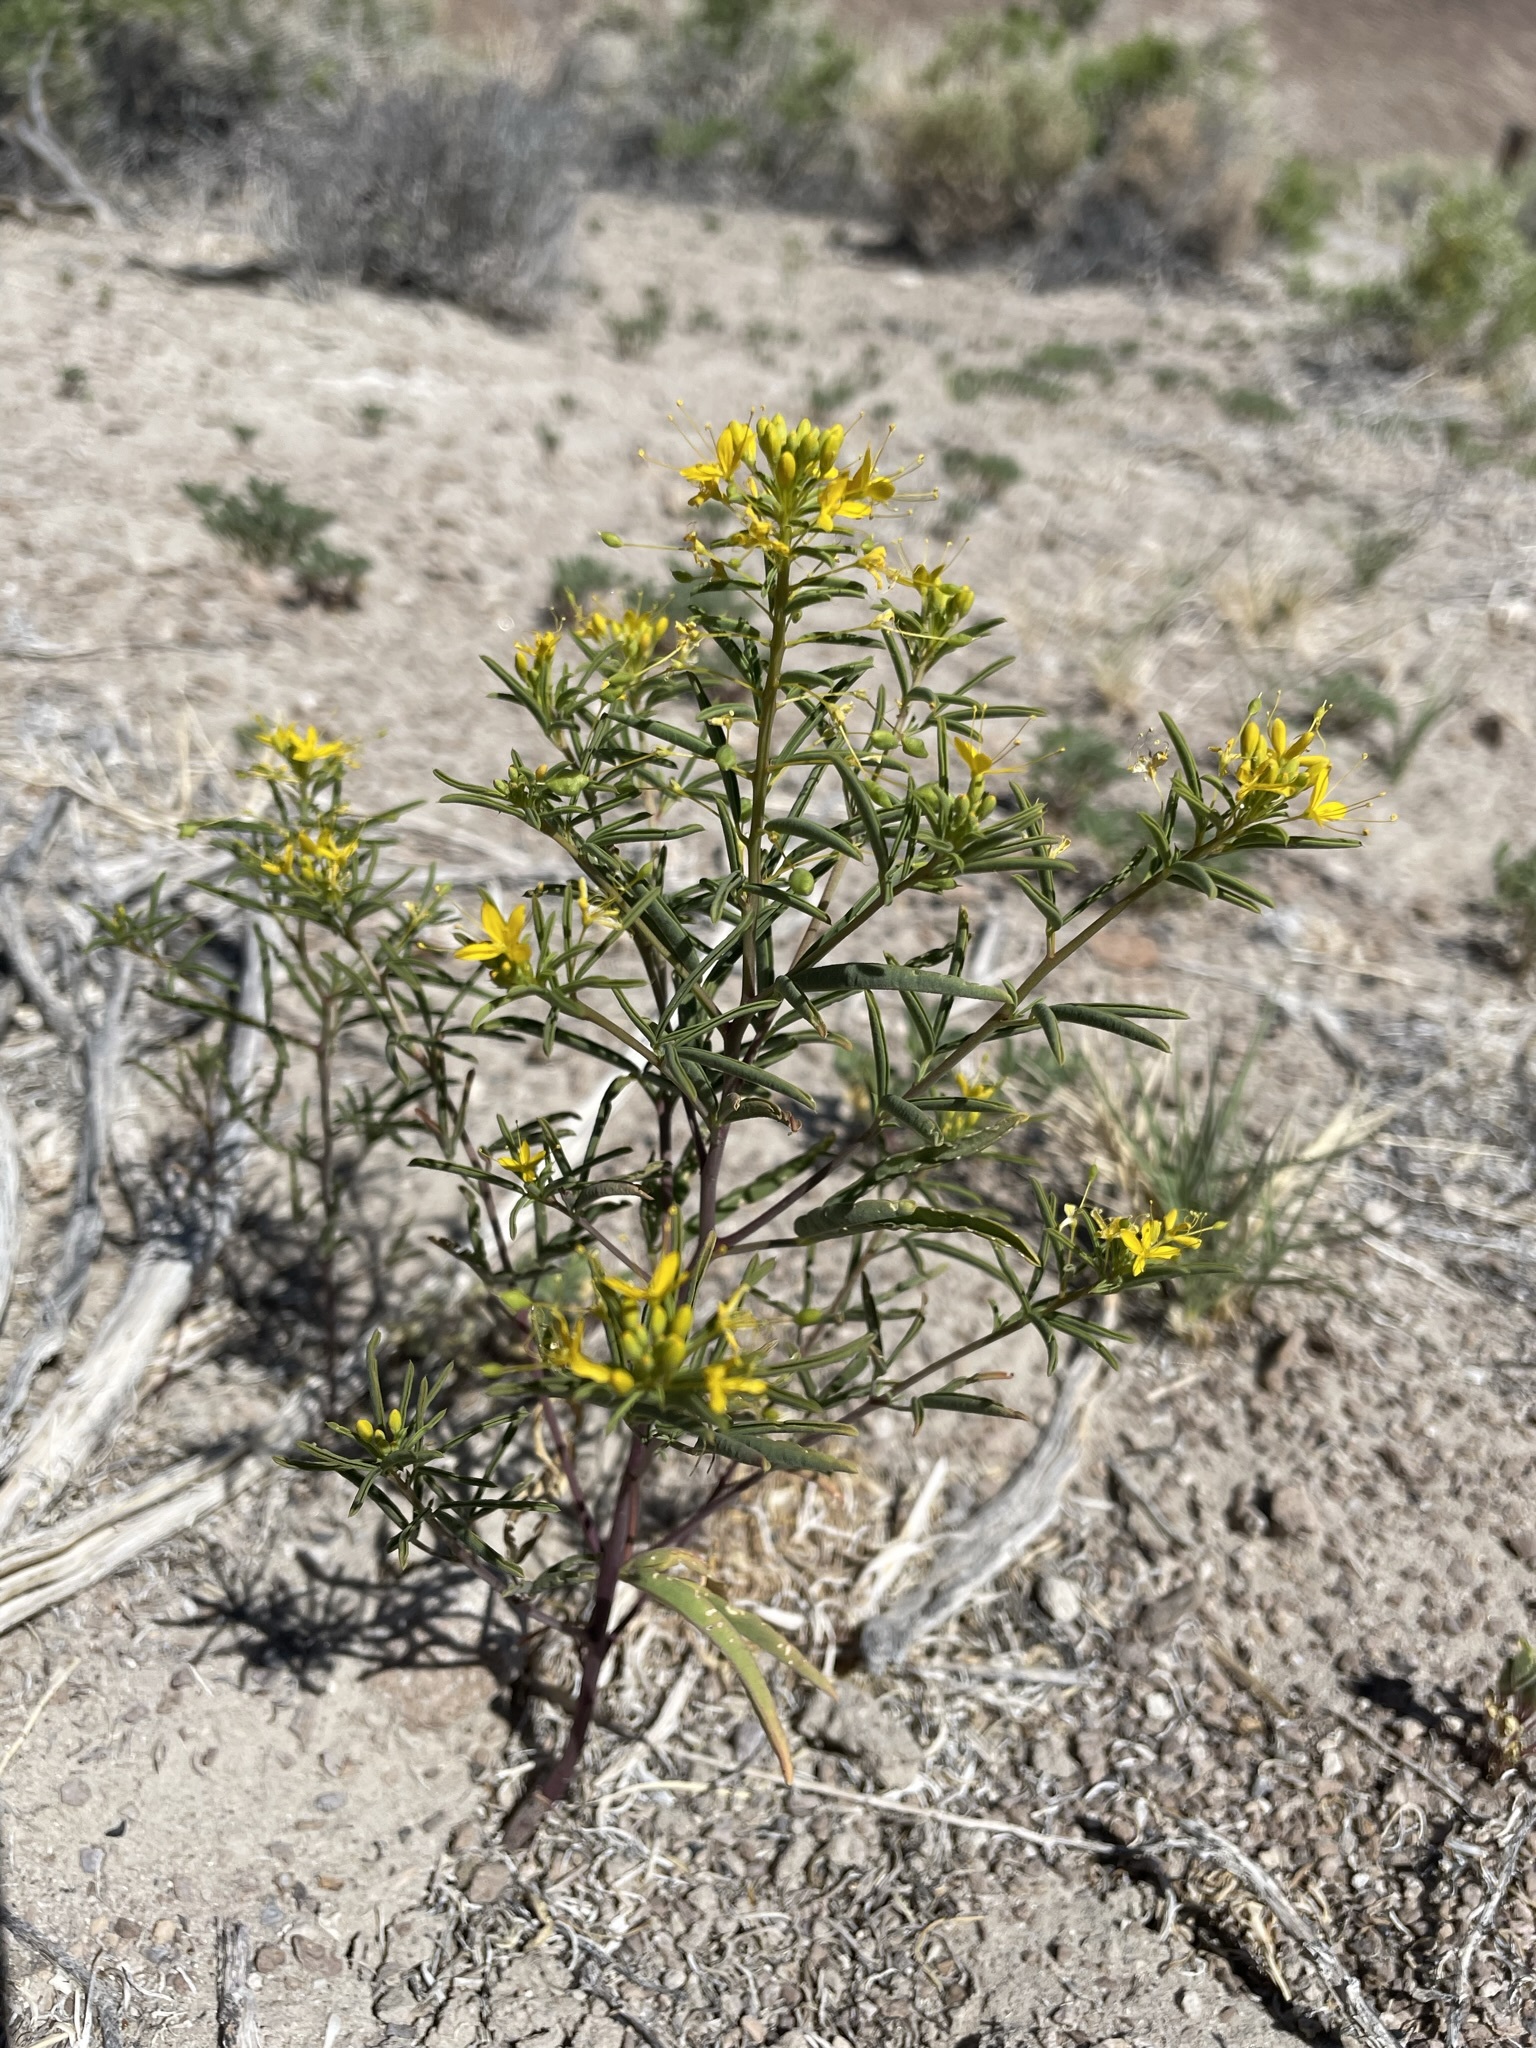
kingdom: Plantae
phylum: Tracheophyta
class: Magnoliopsida
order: Brassicales
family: Cleomaceae
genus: Cleomella
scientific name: Cleomella plocasperma
